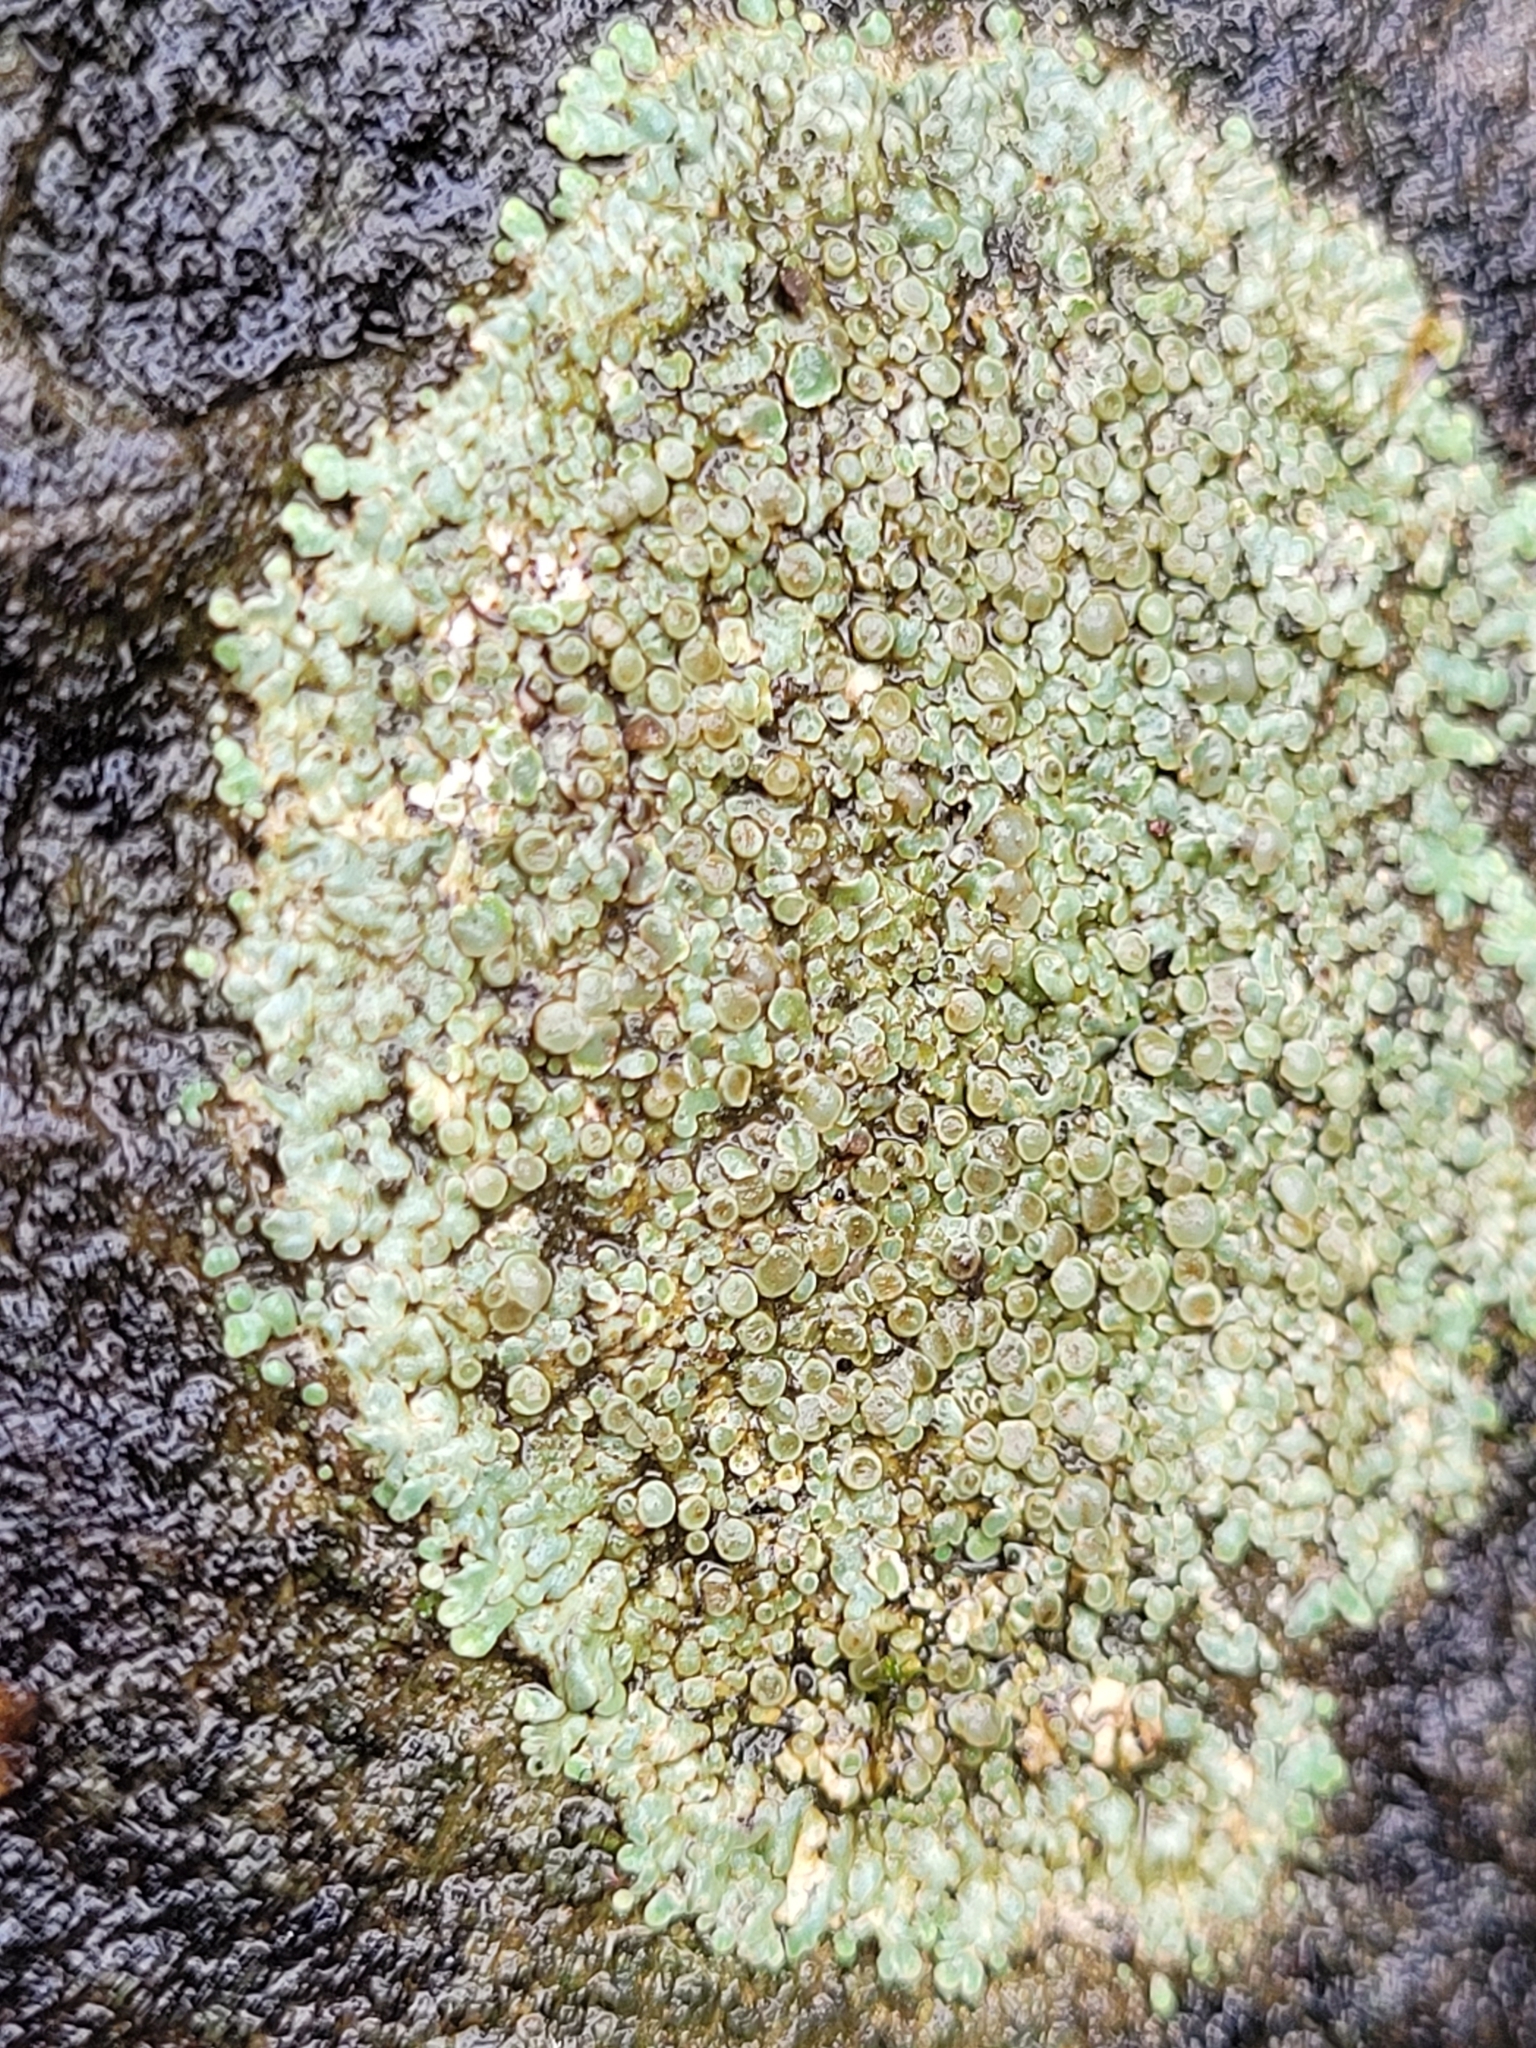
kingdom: Fungi
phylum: Ascomycota
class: Lecanoromycetes
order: Lecanorales
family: Lecanoraceae
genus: Protoparmeliopsis
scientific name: Protoparmeliopsis muralis
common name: Stonewall rim lichen
